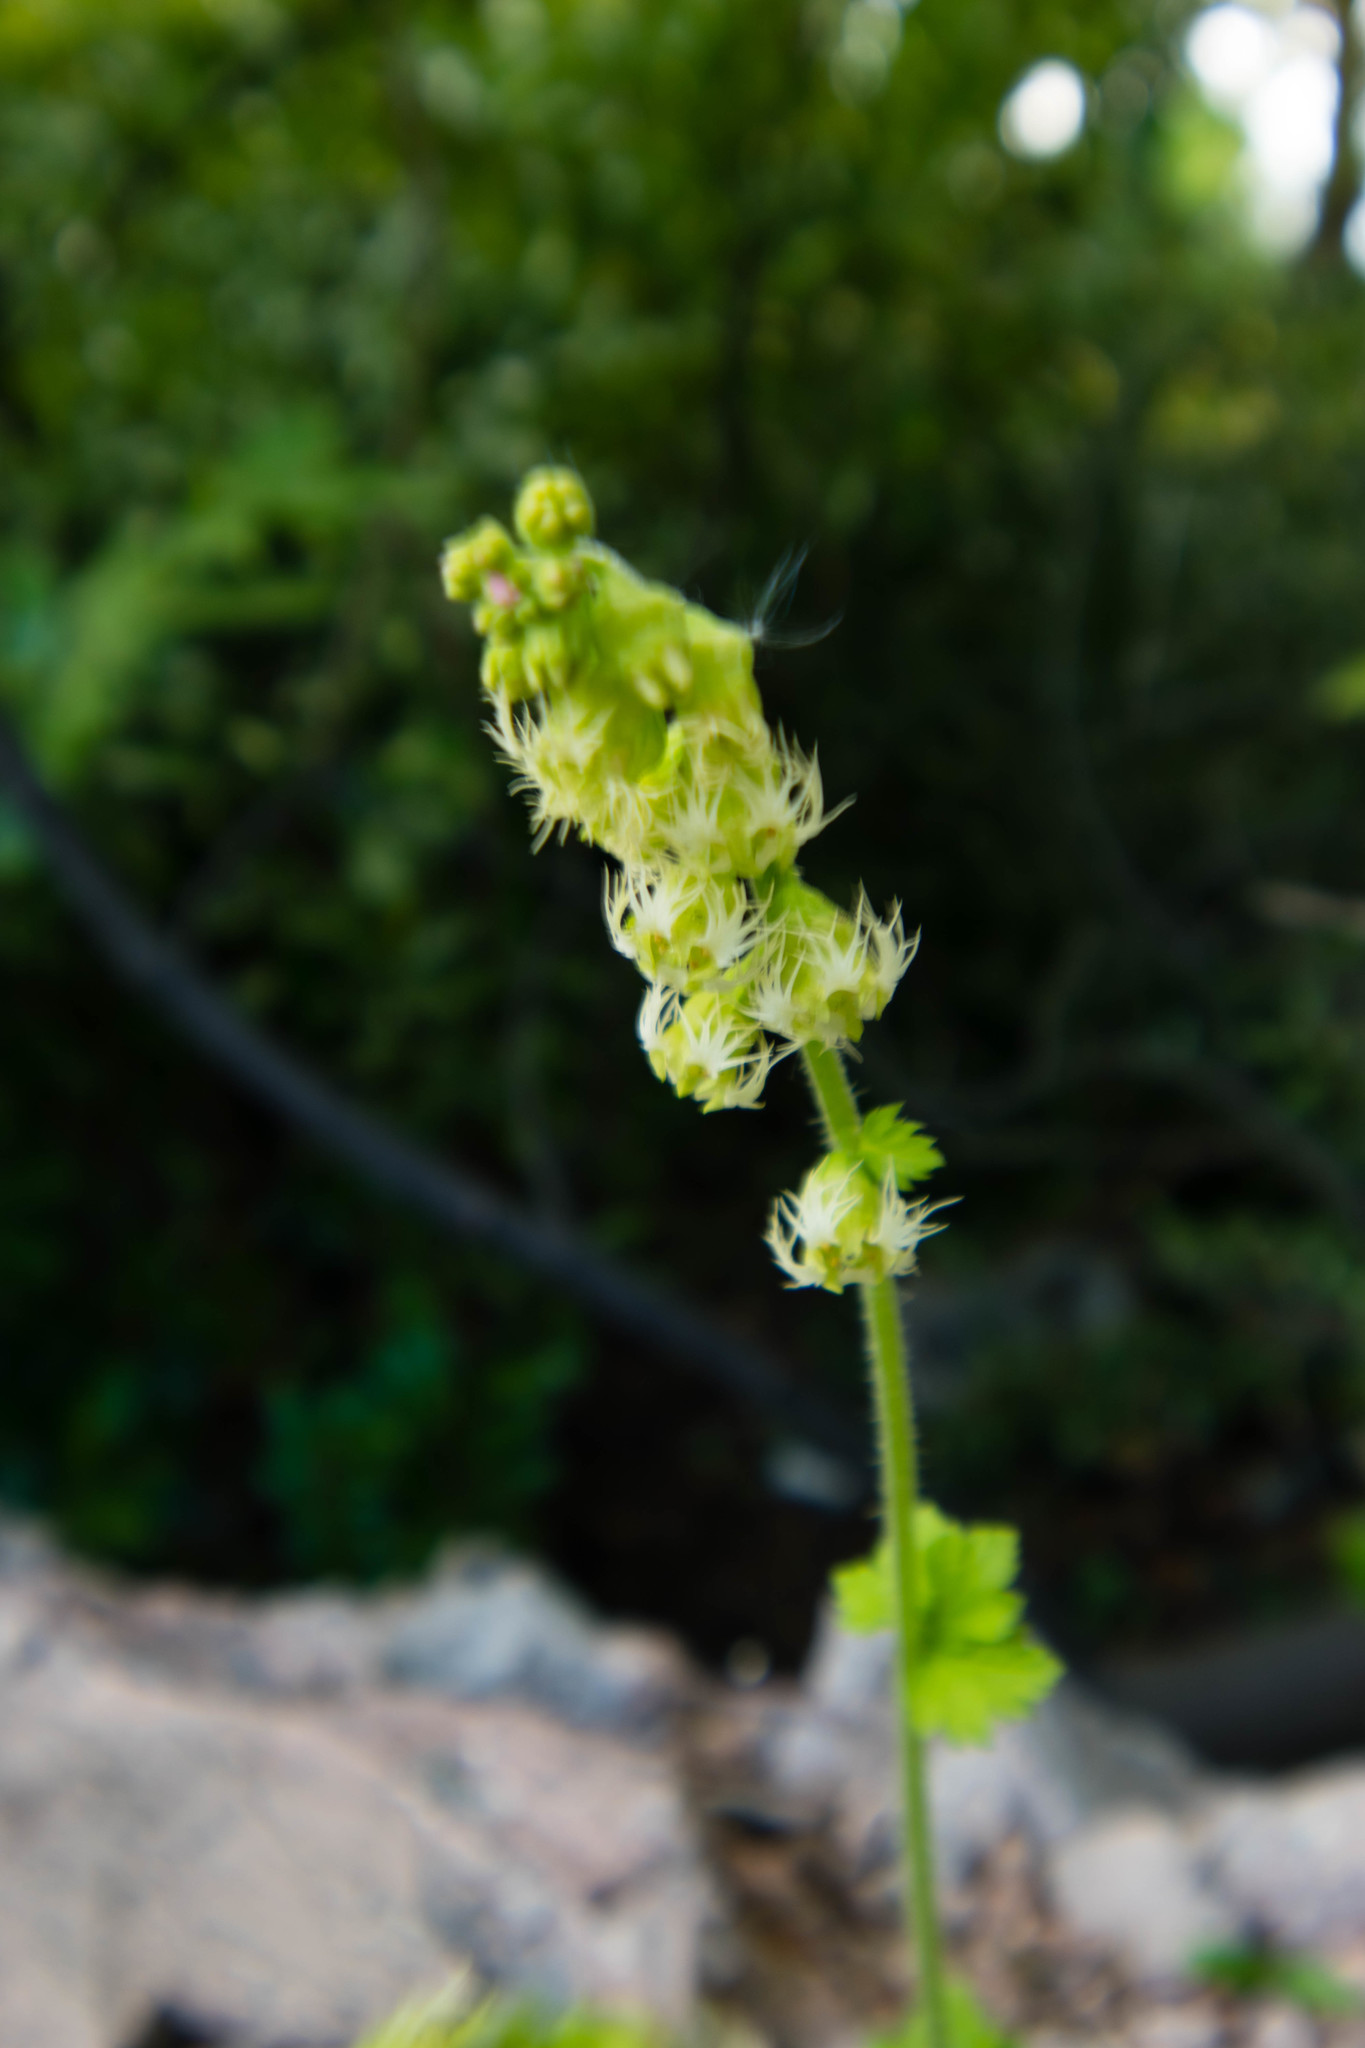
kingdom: Plantae
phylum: Tracheophyta
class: Magnoliopsida
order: Saxifragales
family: Saxifragaceae
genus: Tellima
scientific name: Tellima grandiflora
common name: Fringecups
